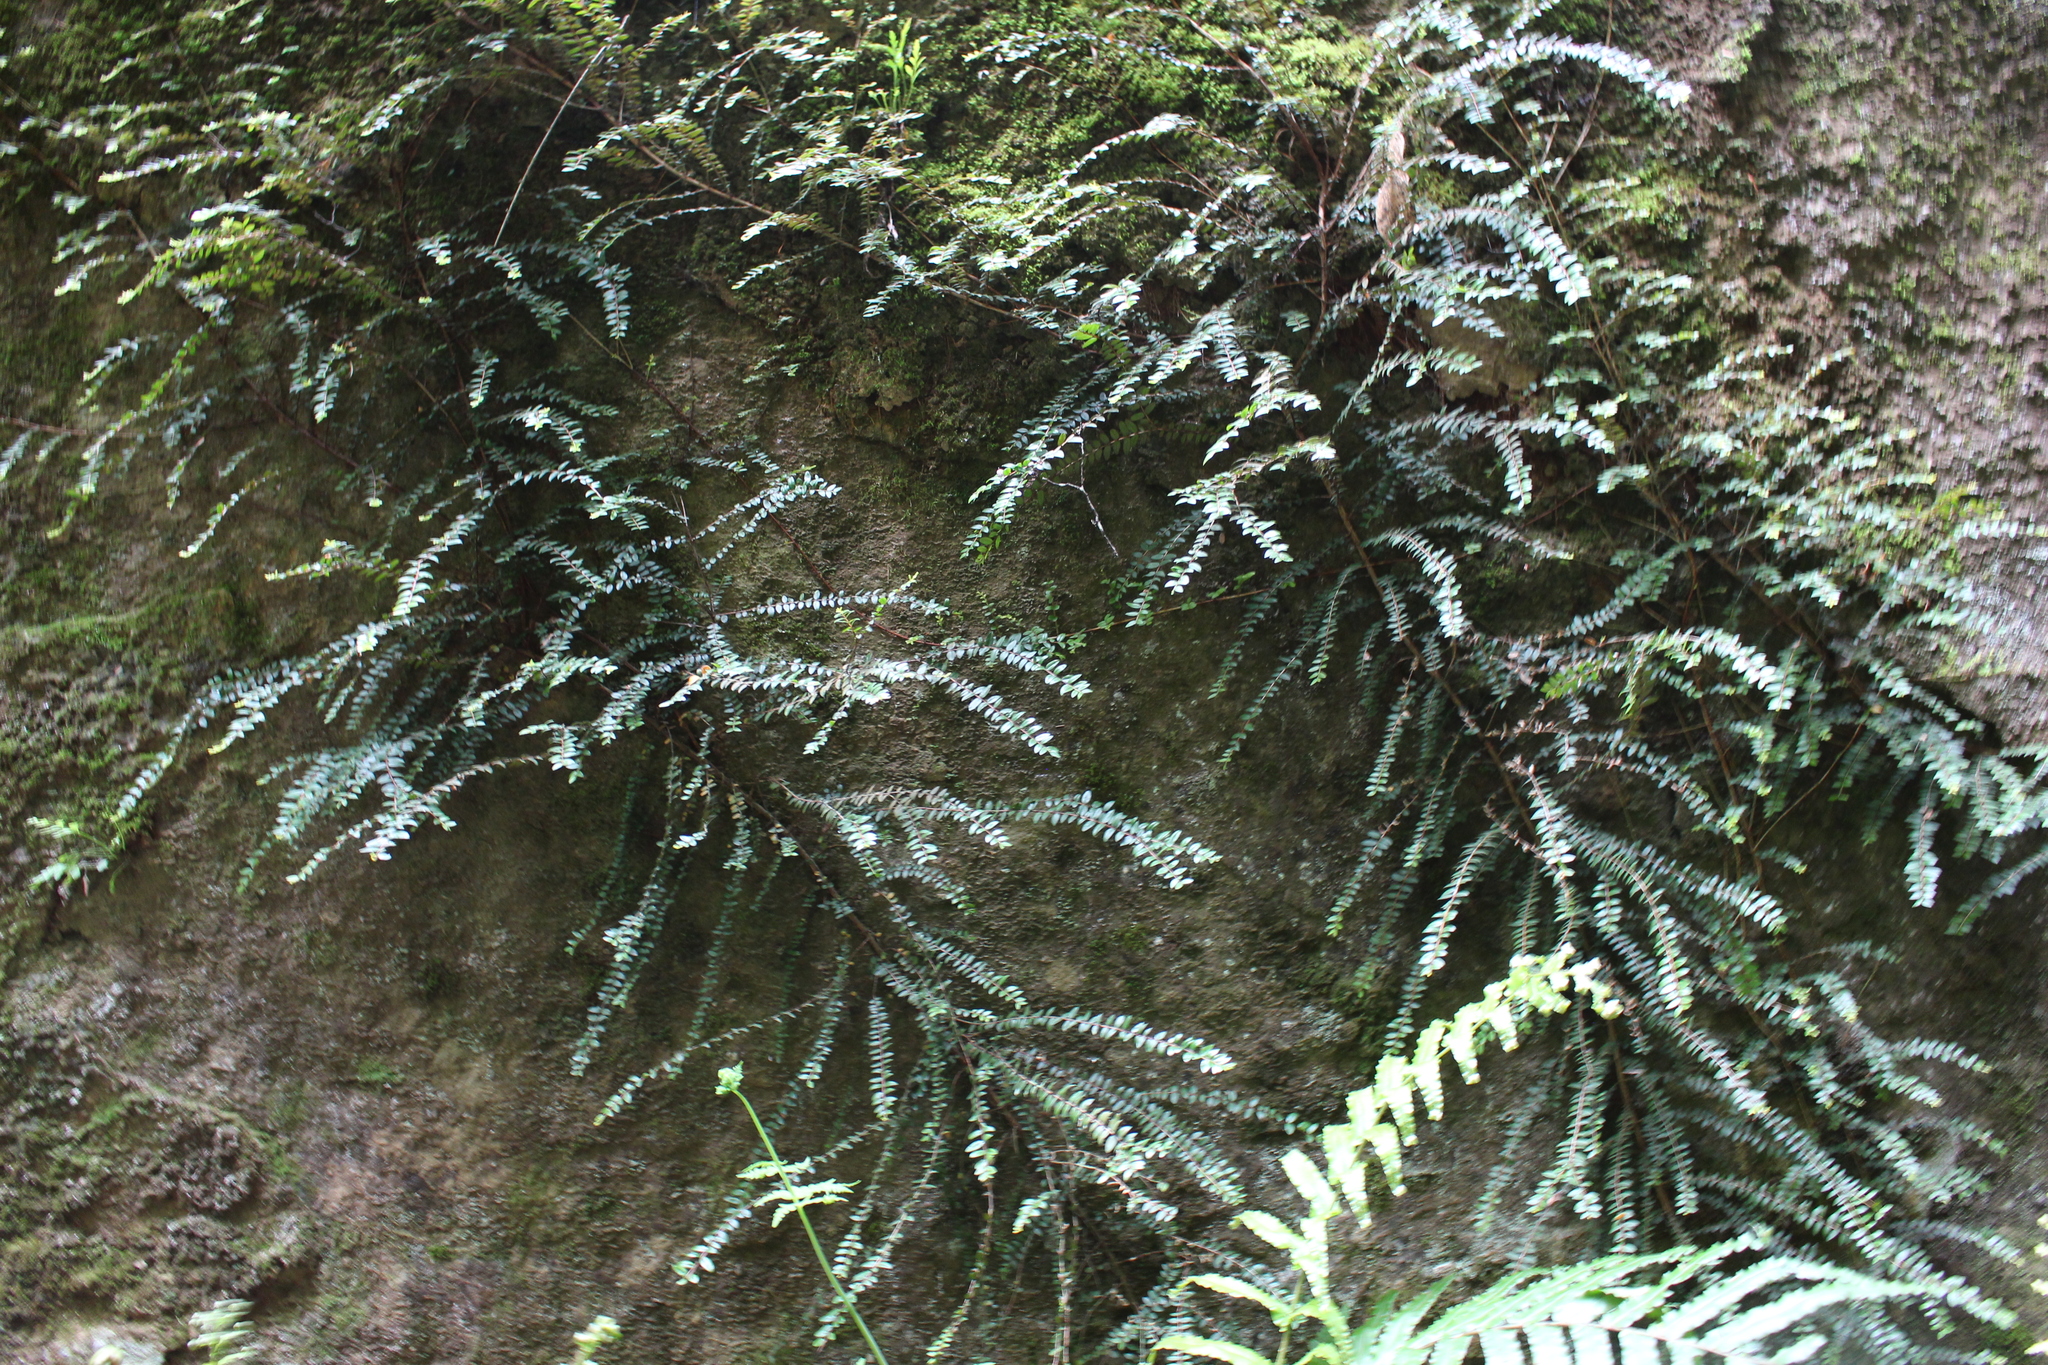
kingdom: Plantae
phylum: Tracheophyta
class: Magnoliopsida
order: Myrtales
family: Myrtaceae
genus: Metrosideros
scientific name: Metrosideros diffusa
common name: Small ratavine
